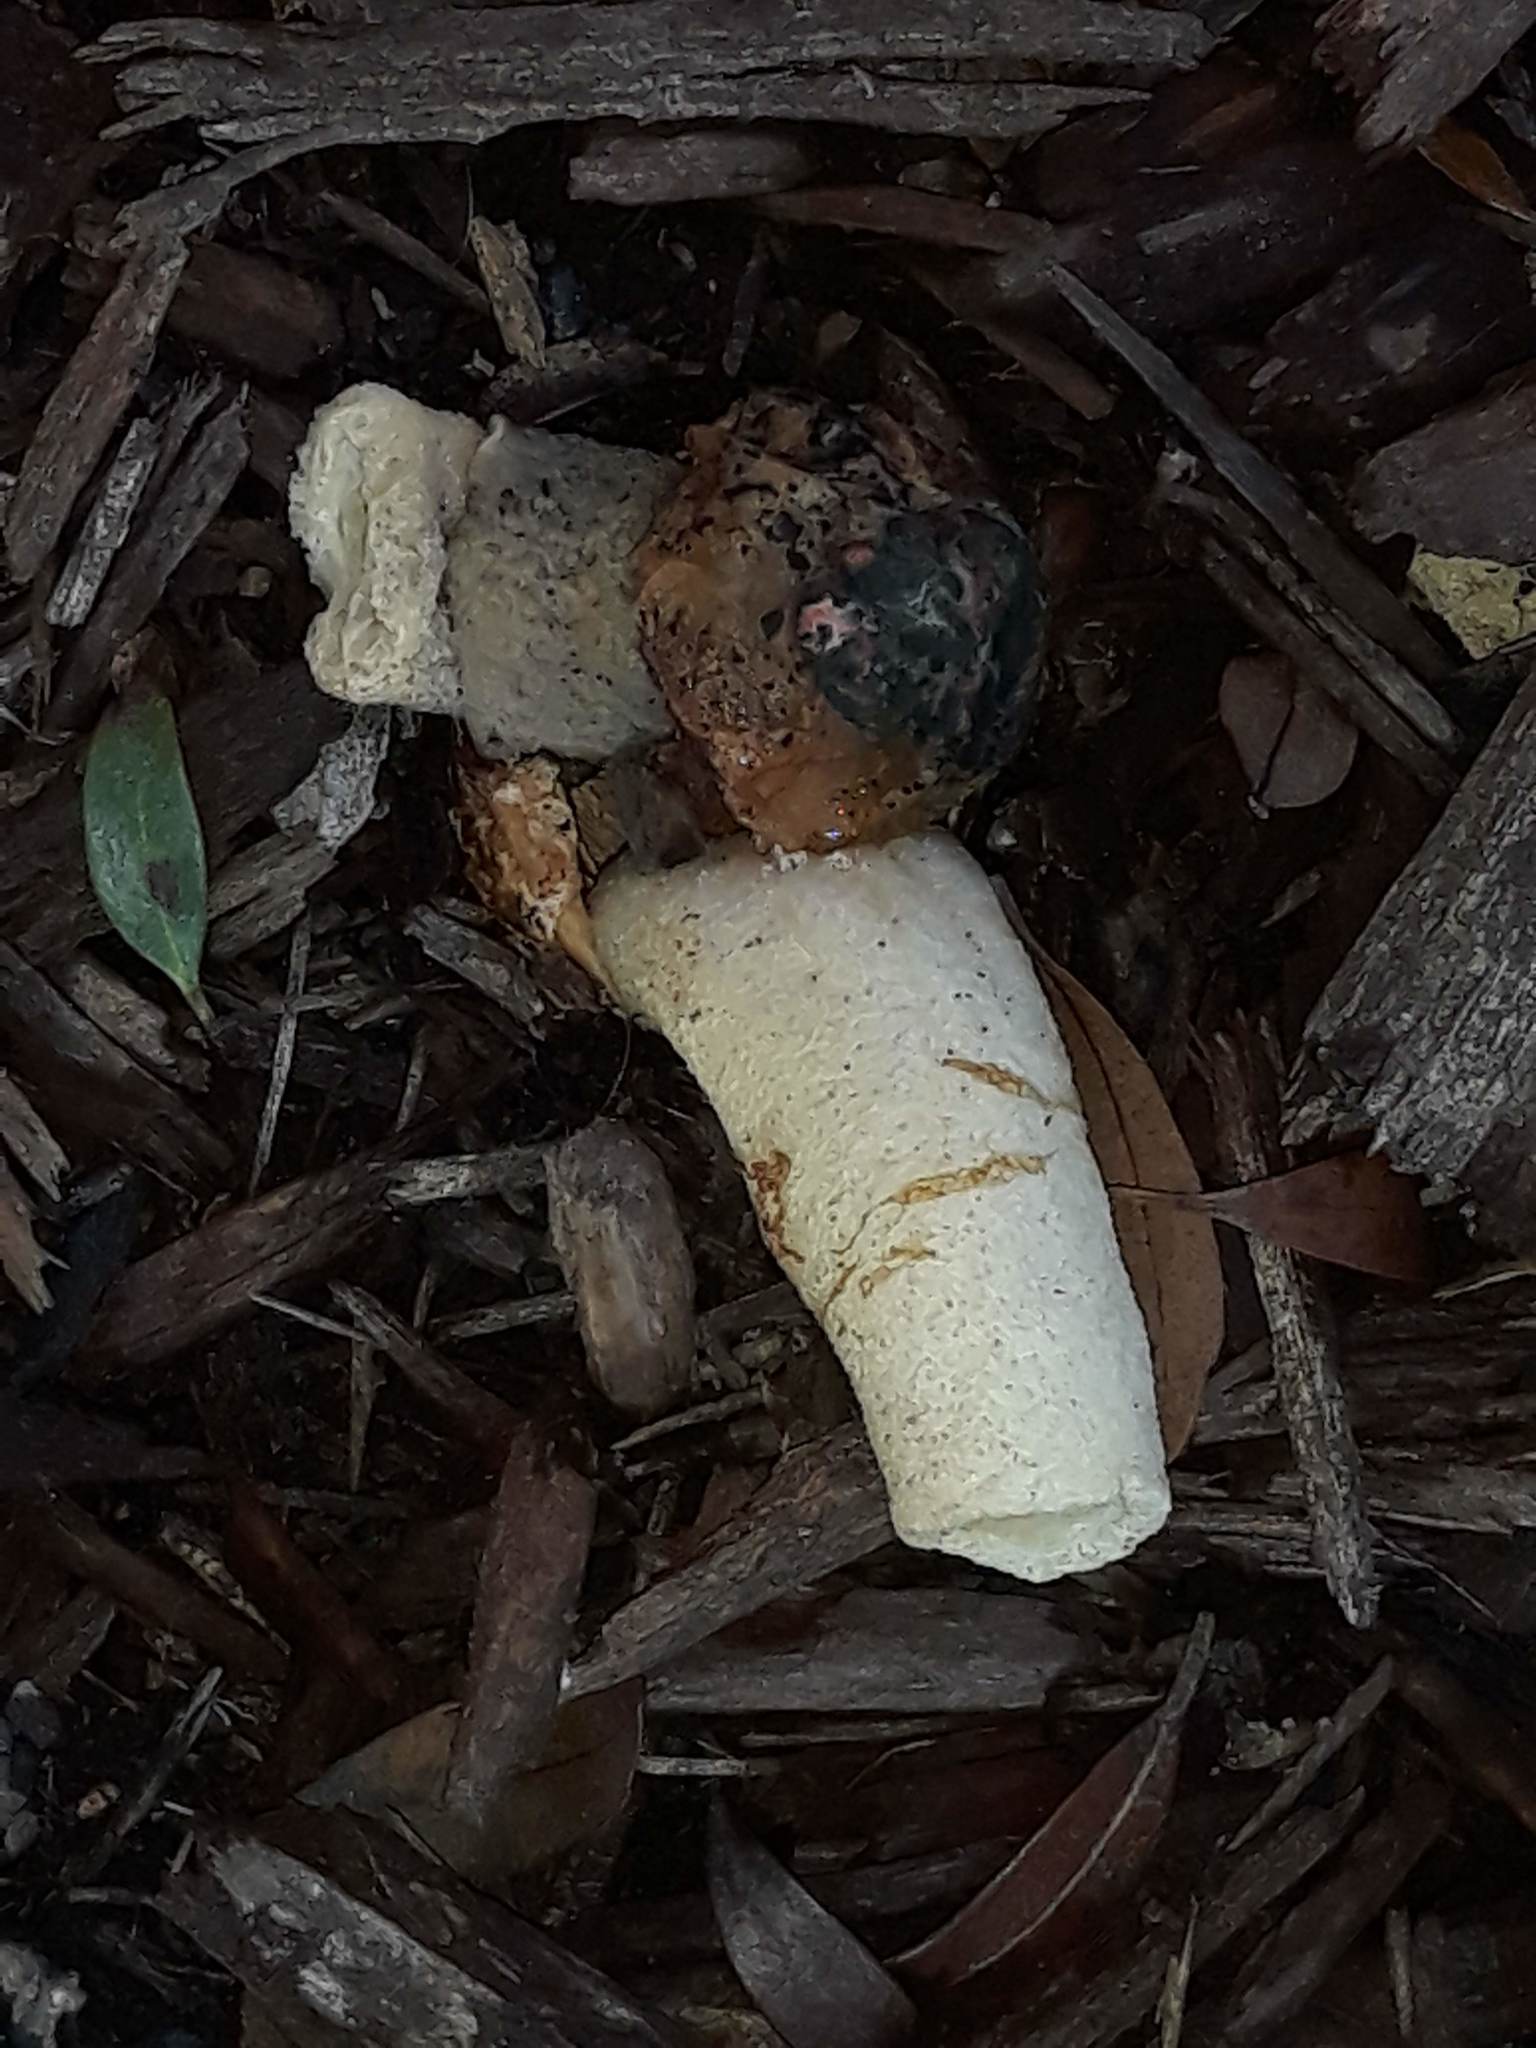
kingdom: Fungi
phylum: Basidiomycota
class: Agaricomycetes
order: Phallales
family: Phallaceae
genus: Phallus
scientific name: Phallus ravenelii
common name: Ravenel's stinkhorn
